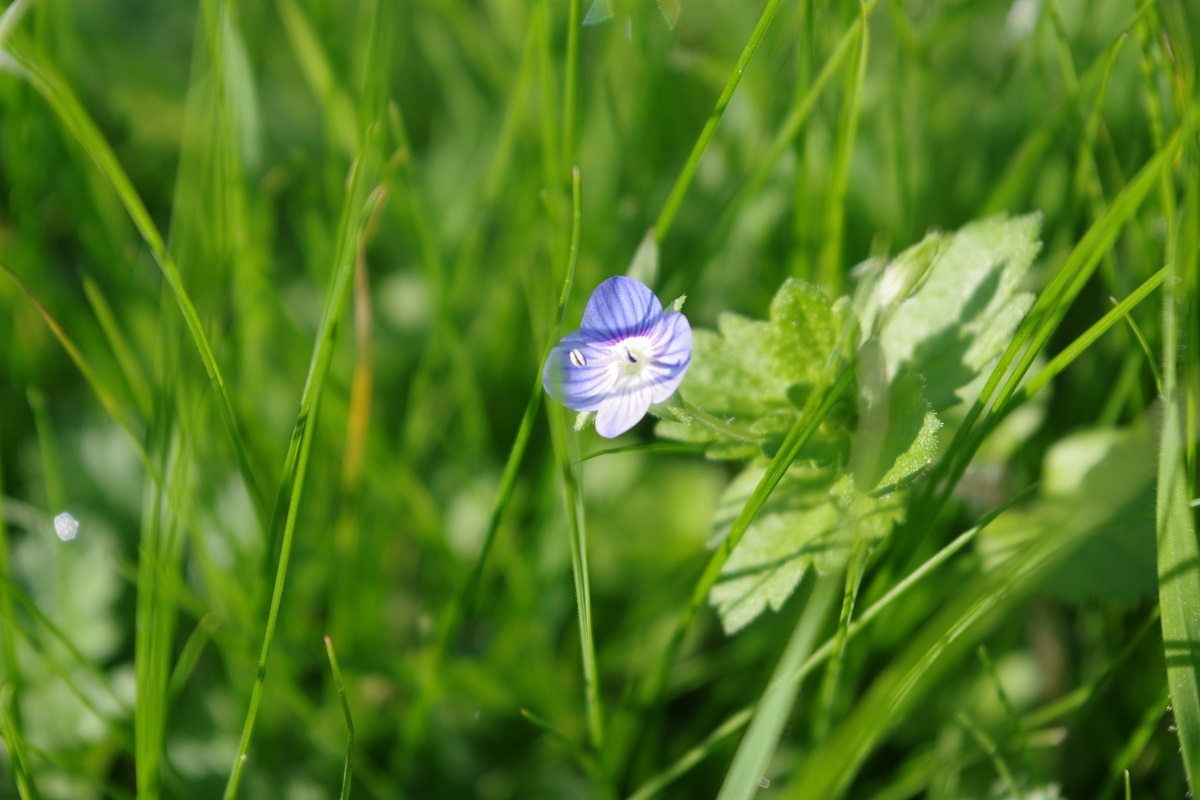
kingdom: Plantae
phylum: Tracheophyta
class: Magnoliopsida
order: Lamiales
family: Plantaginaceae
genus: Veronica
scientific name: Veronica persica
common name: Common field-speedwell
